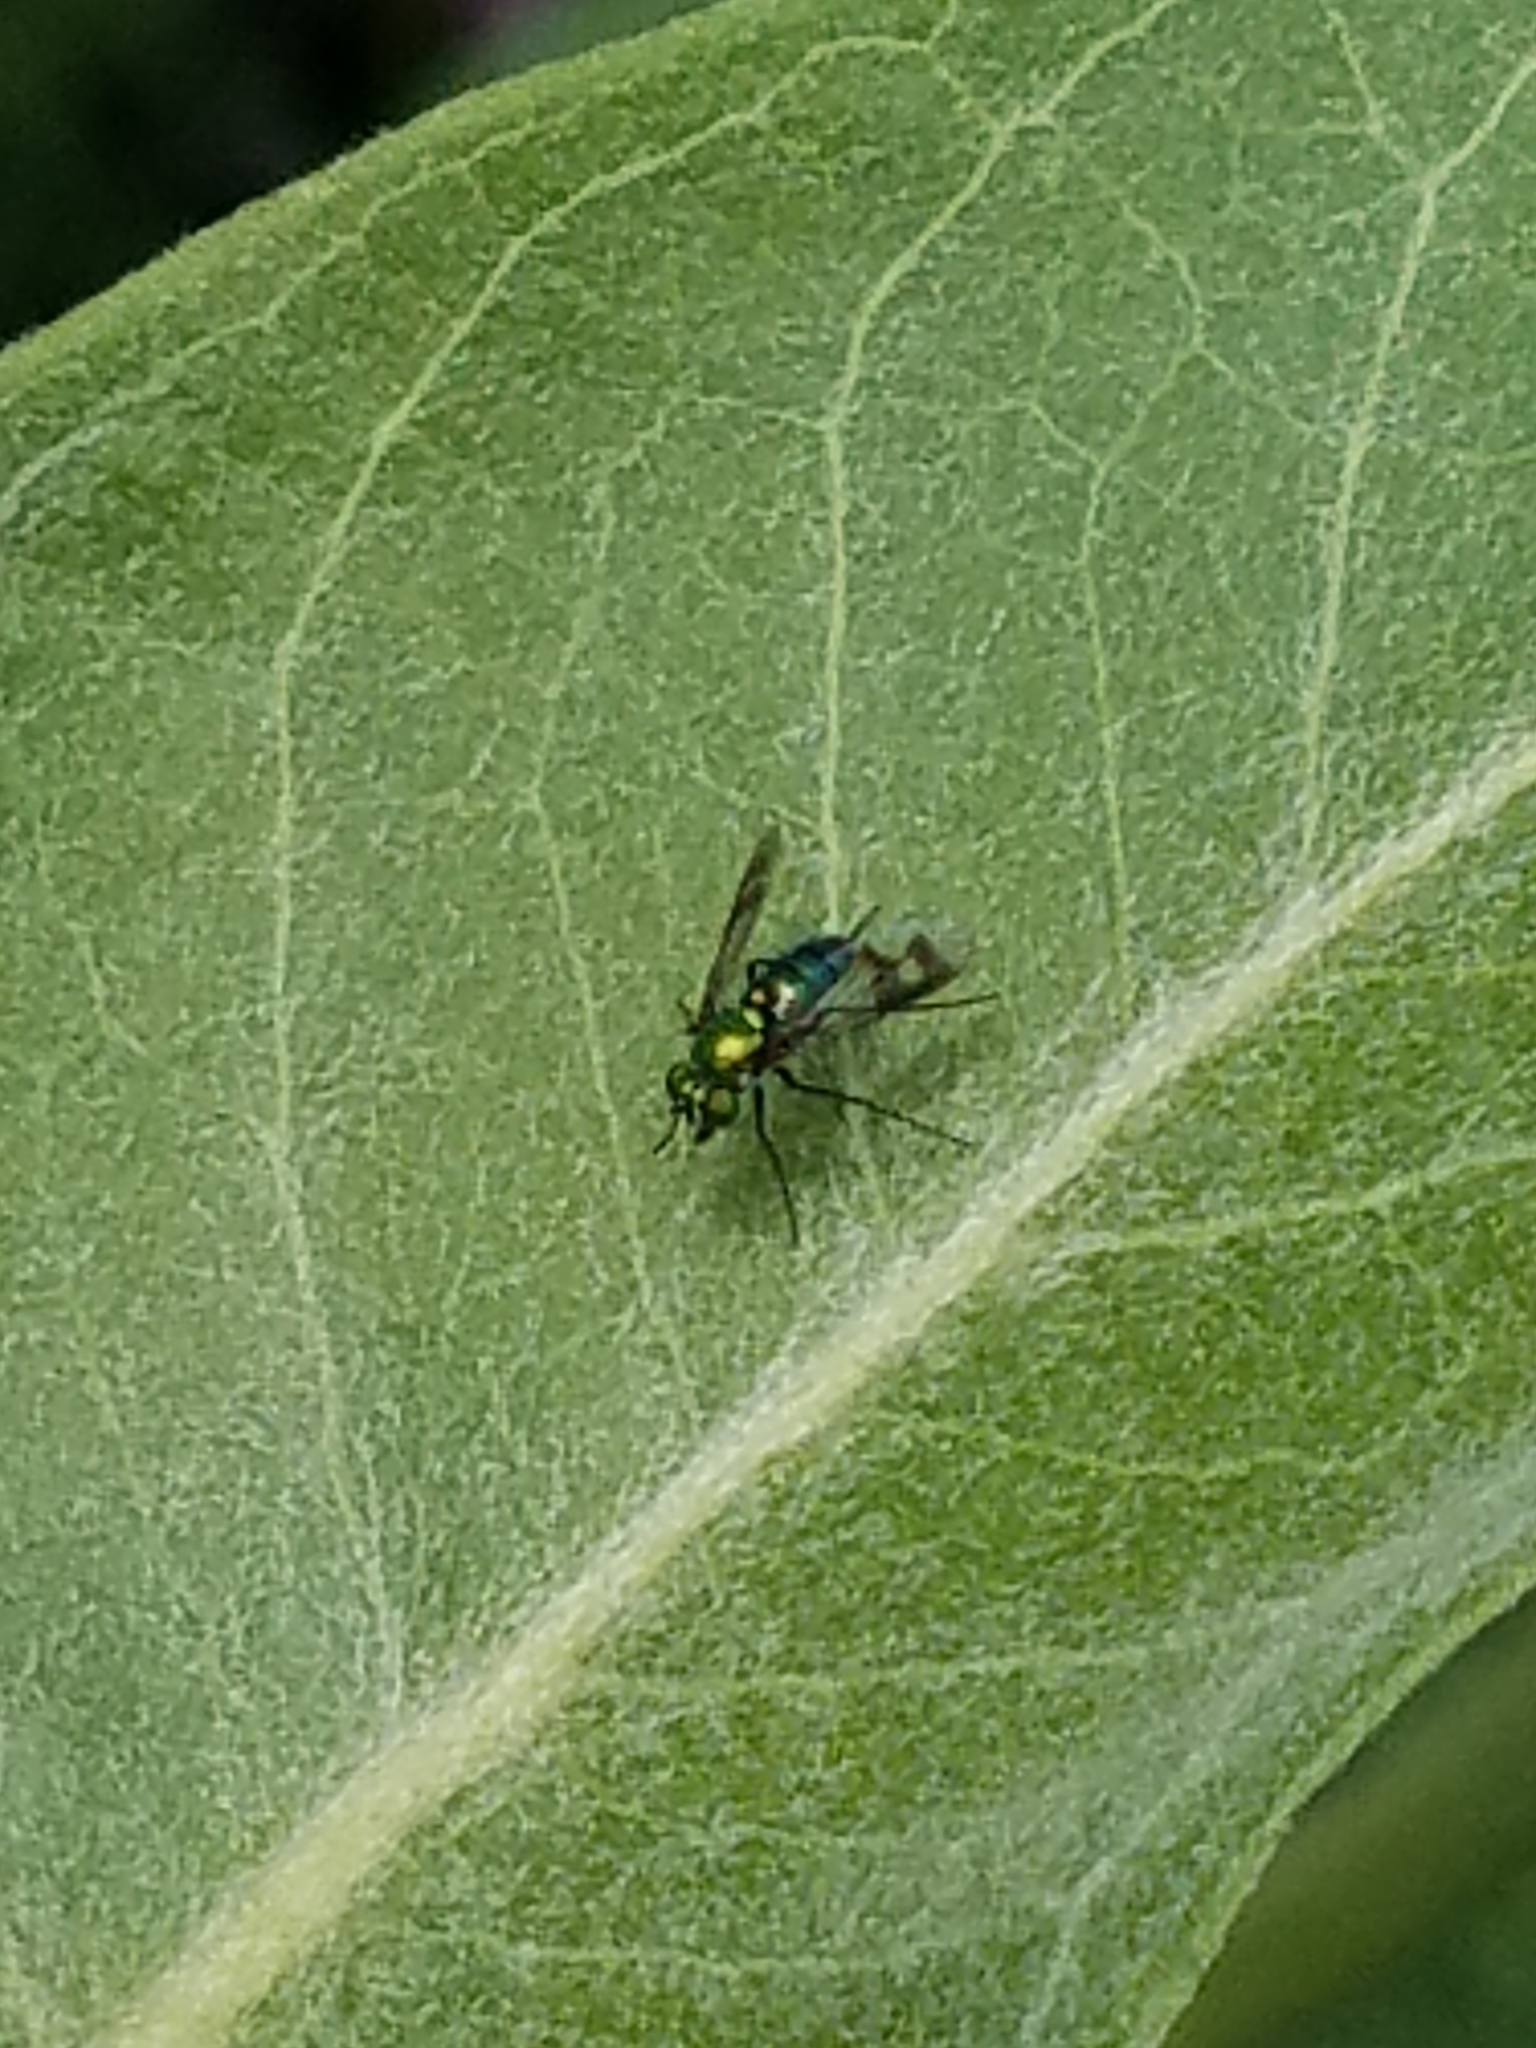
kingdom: Animalia
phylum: Arthropoda
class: Insecta
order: Diptera
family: Dolichopodidae
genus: Condylostylus
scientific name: Condylostylus occidentalis
